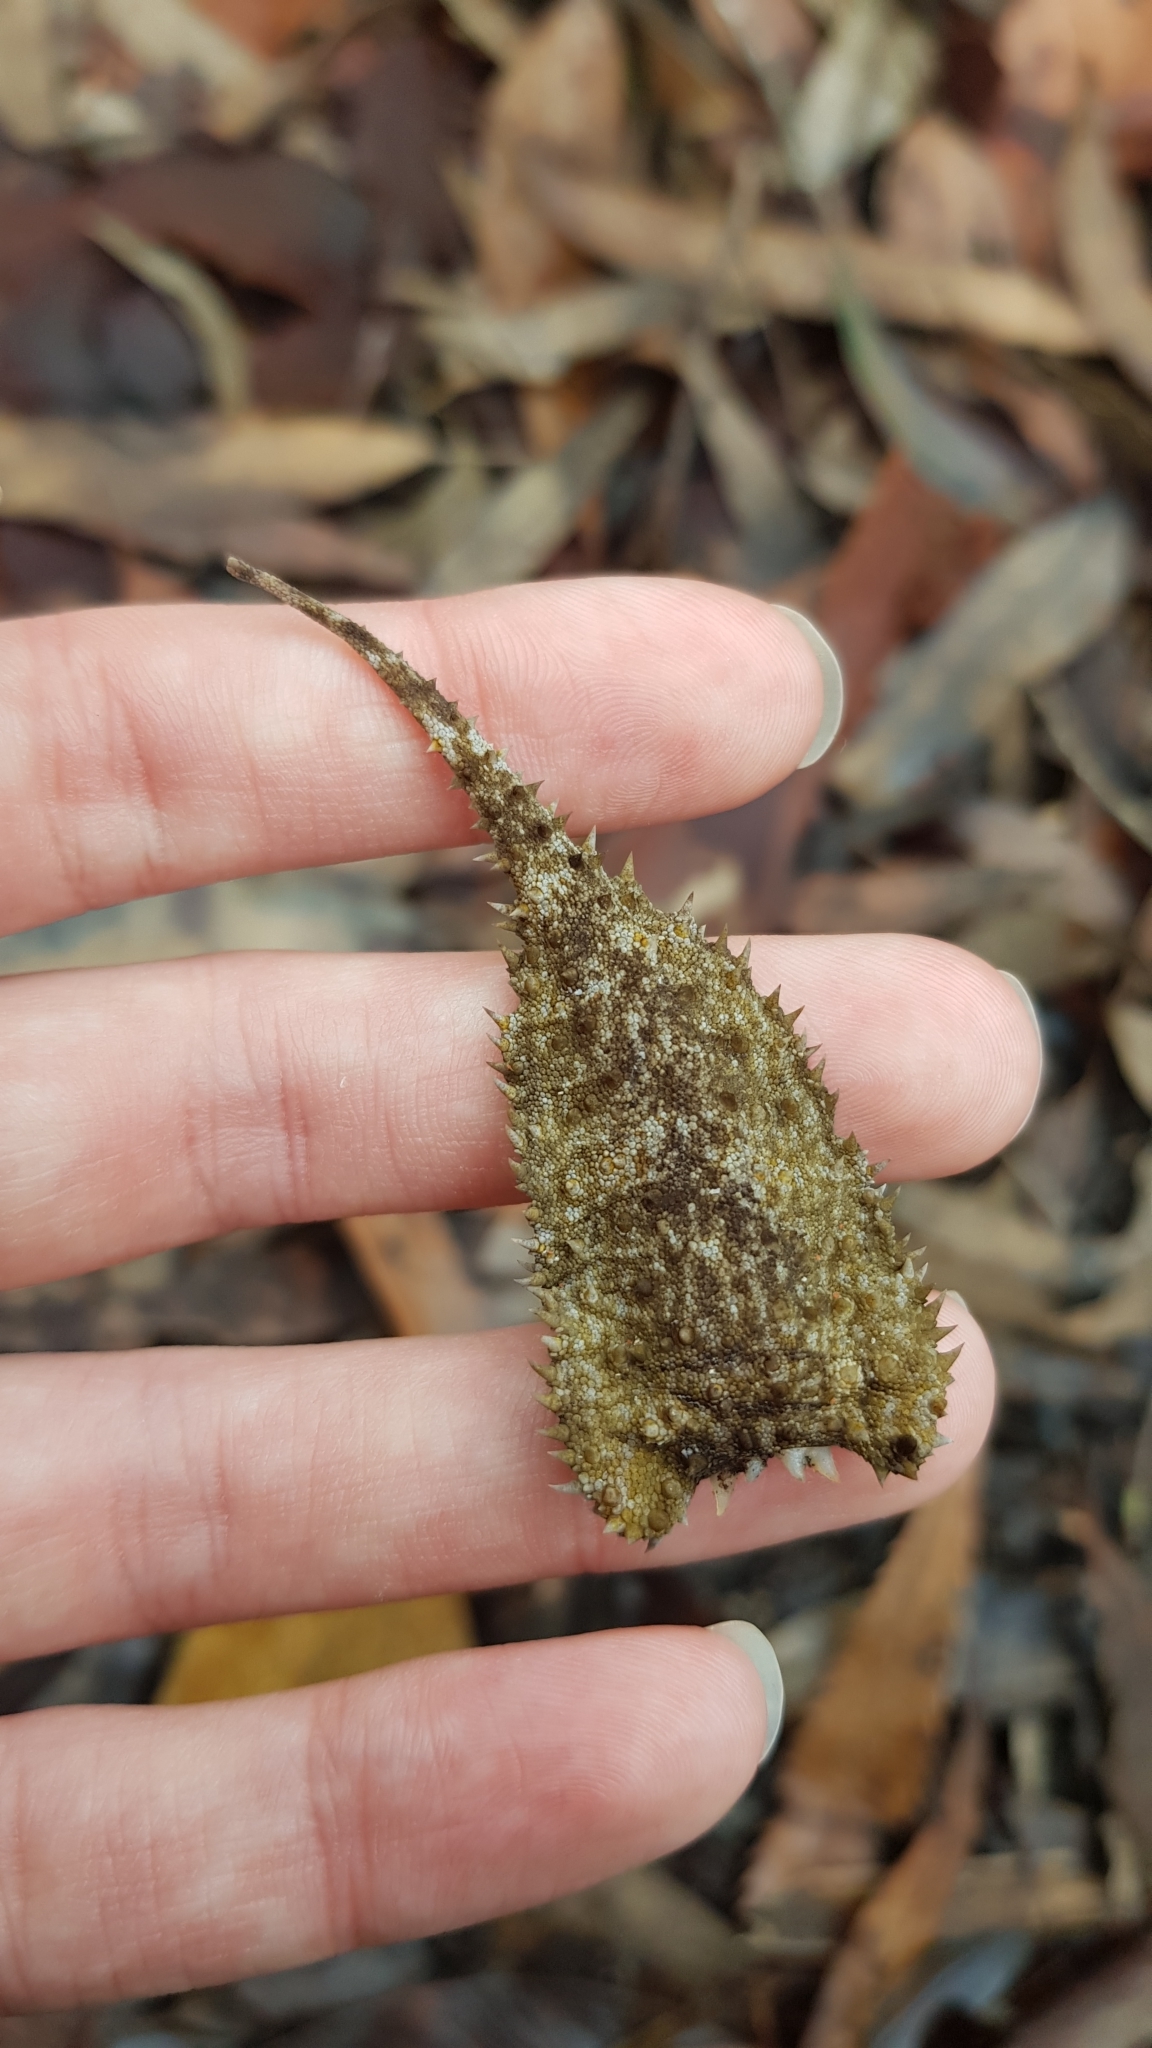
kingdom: Animalia
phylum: Chordata
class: Squamata
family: Carphodactylidae
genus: Phyllurus
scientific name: Phyllurus platurus
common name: Broad-tailed gecko
